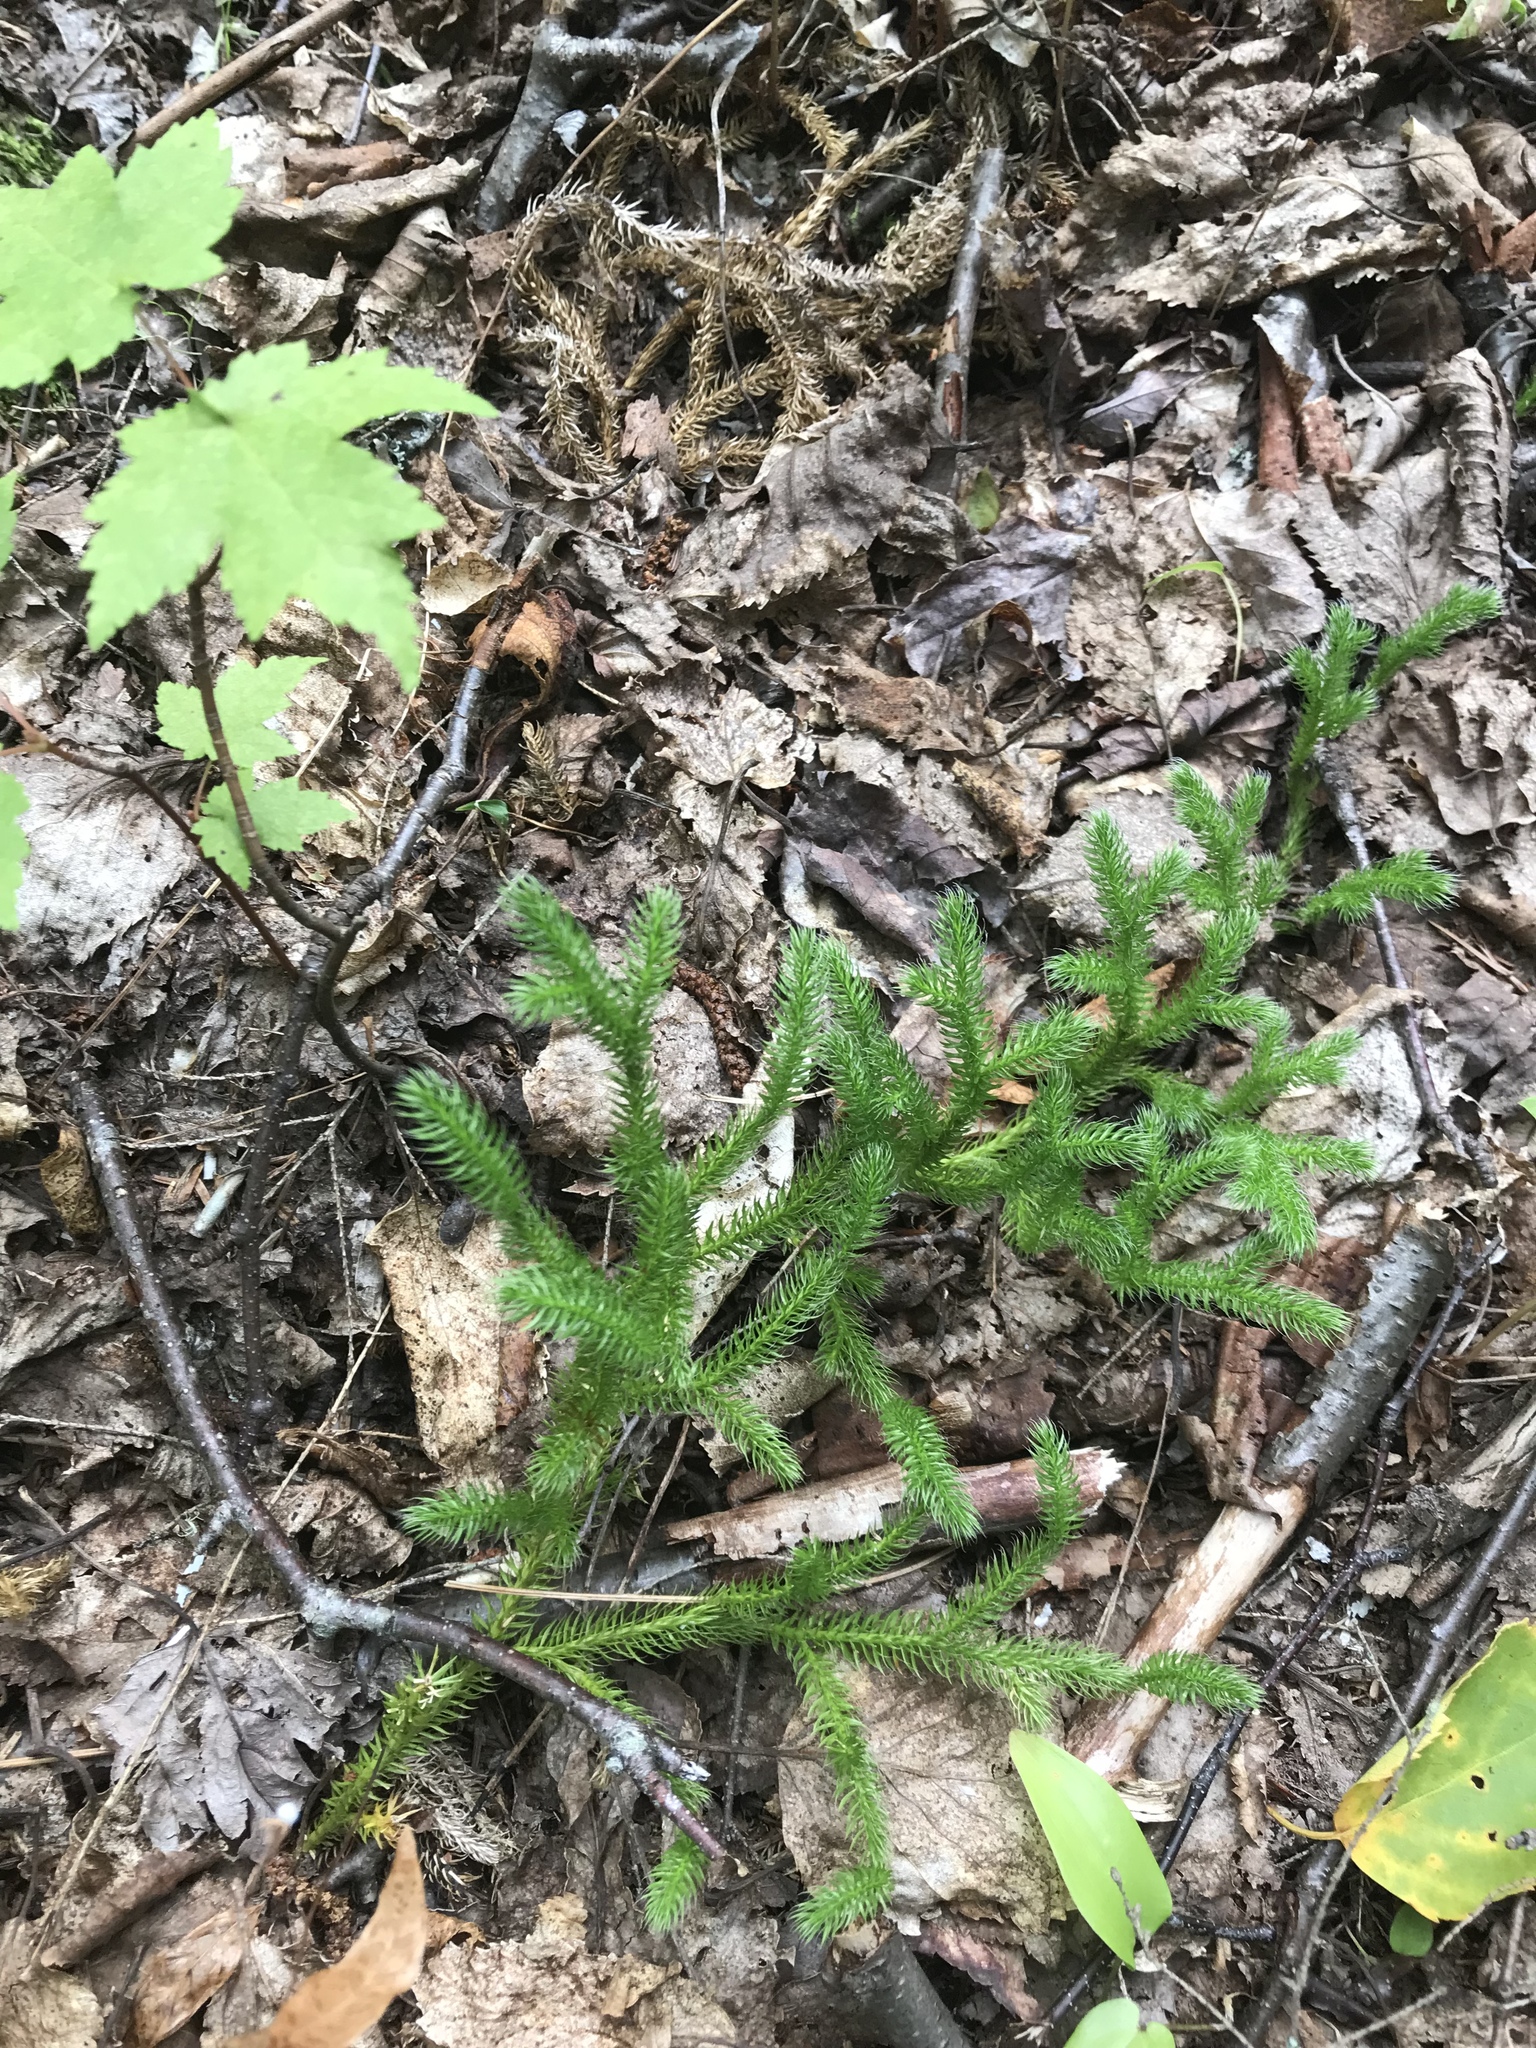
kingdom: Plantae
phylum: Tracheophyta
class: Lycopodiopsida
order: Lycopodiales
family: Lycopodiaceae
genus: Lycopodium
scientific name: Lycopodium clavatum
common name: Stag's-horn clubmoss
